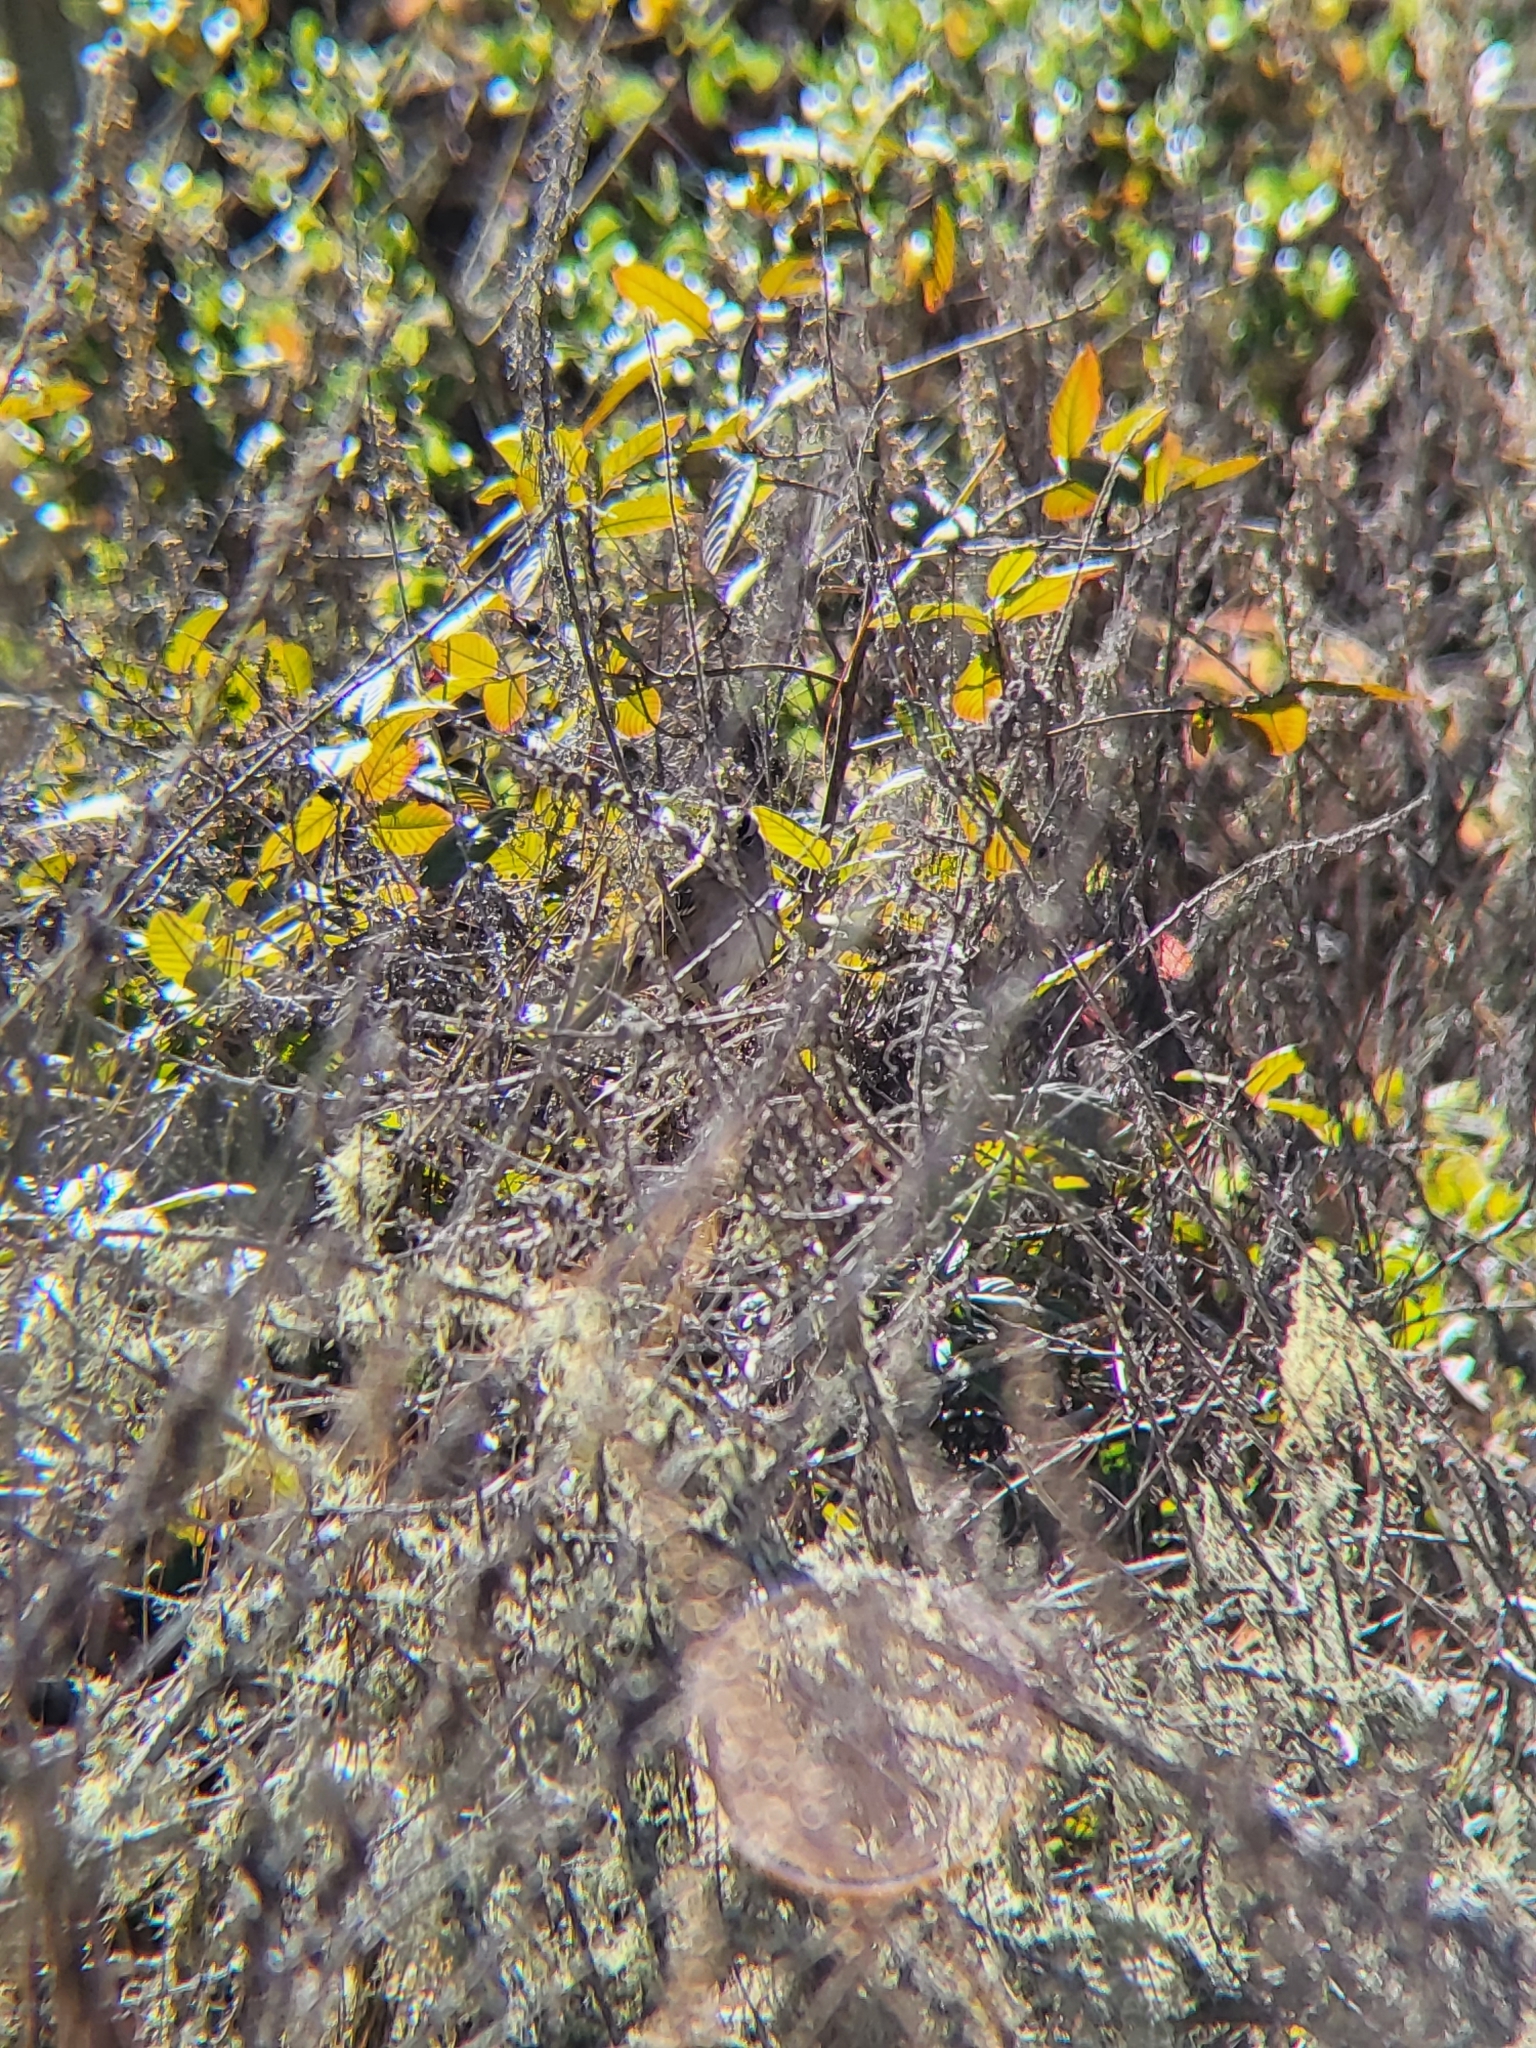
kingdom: Animalia
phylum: Chordata
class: Aves
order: Passeriformes
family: Passerellidae
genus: Zonotrichia
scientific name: Zonotrichia leucophrys
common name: White-crowned sparrow
